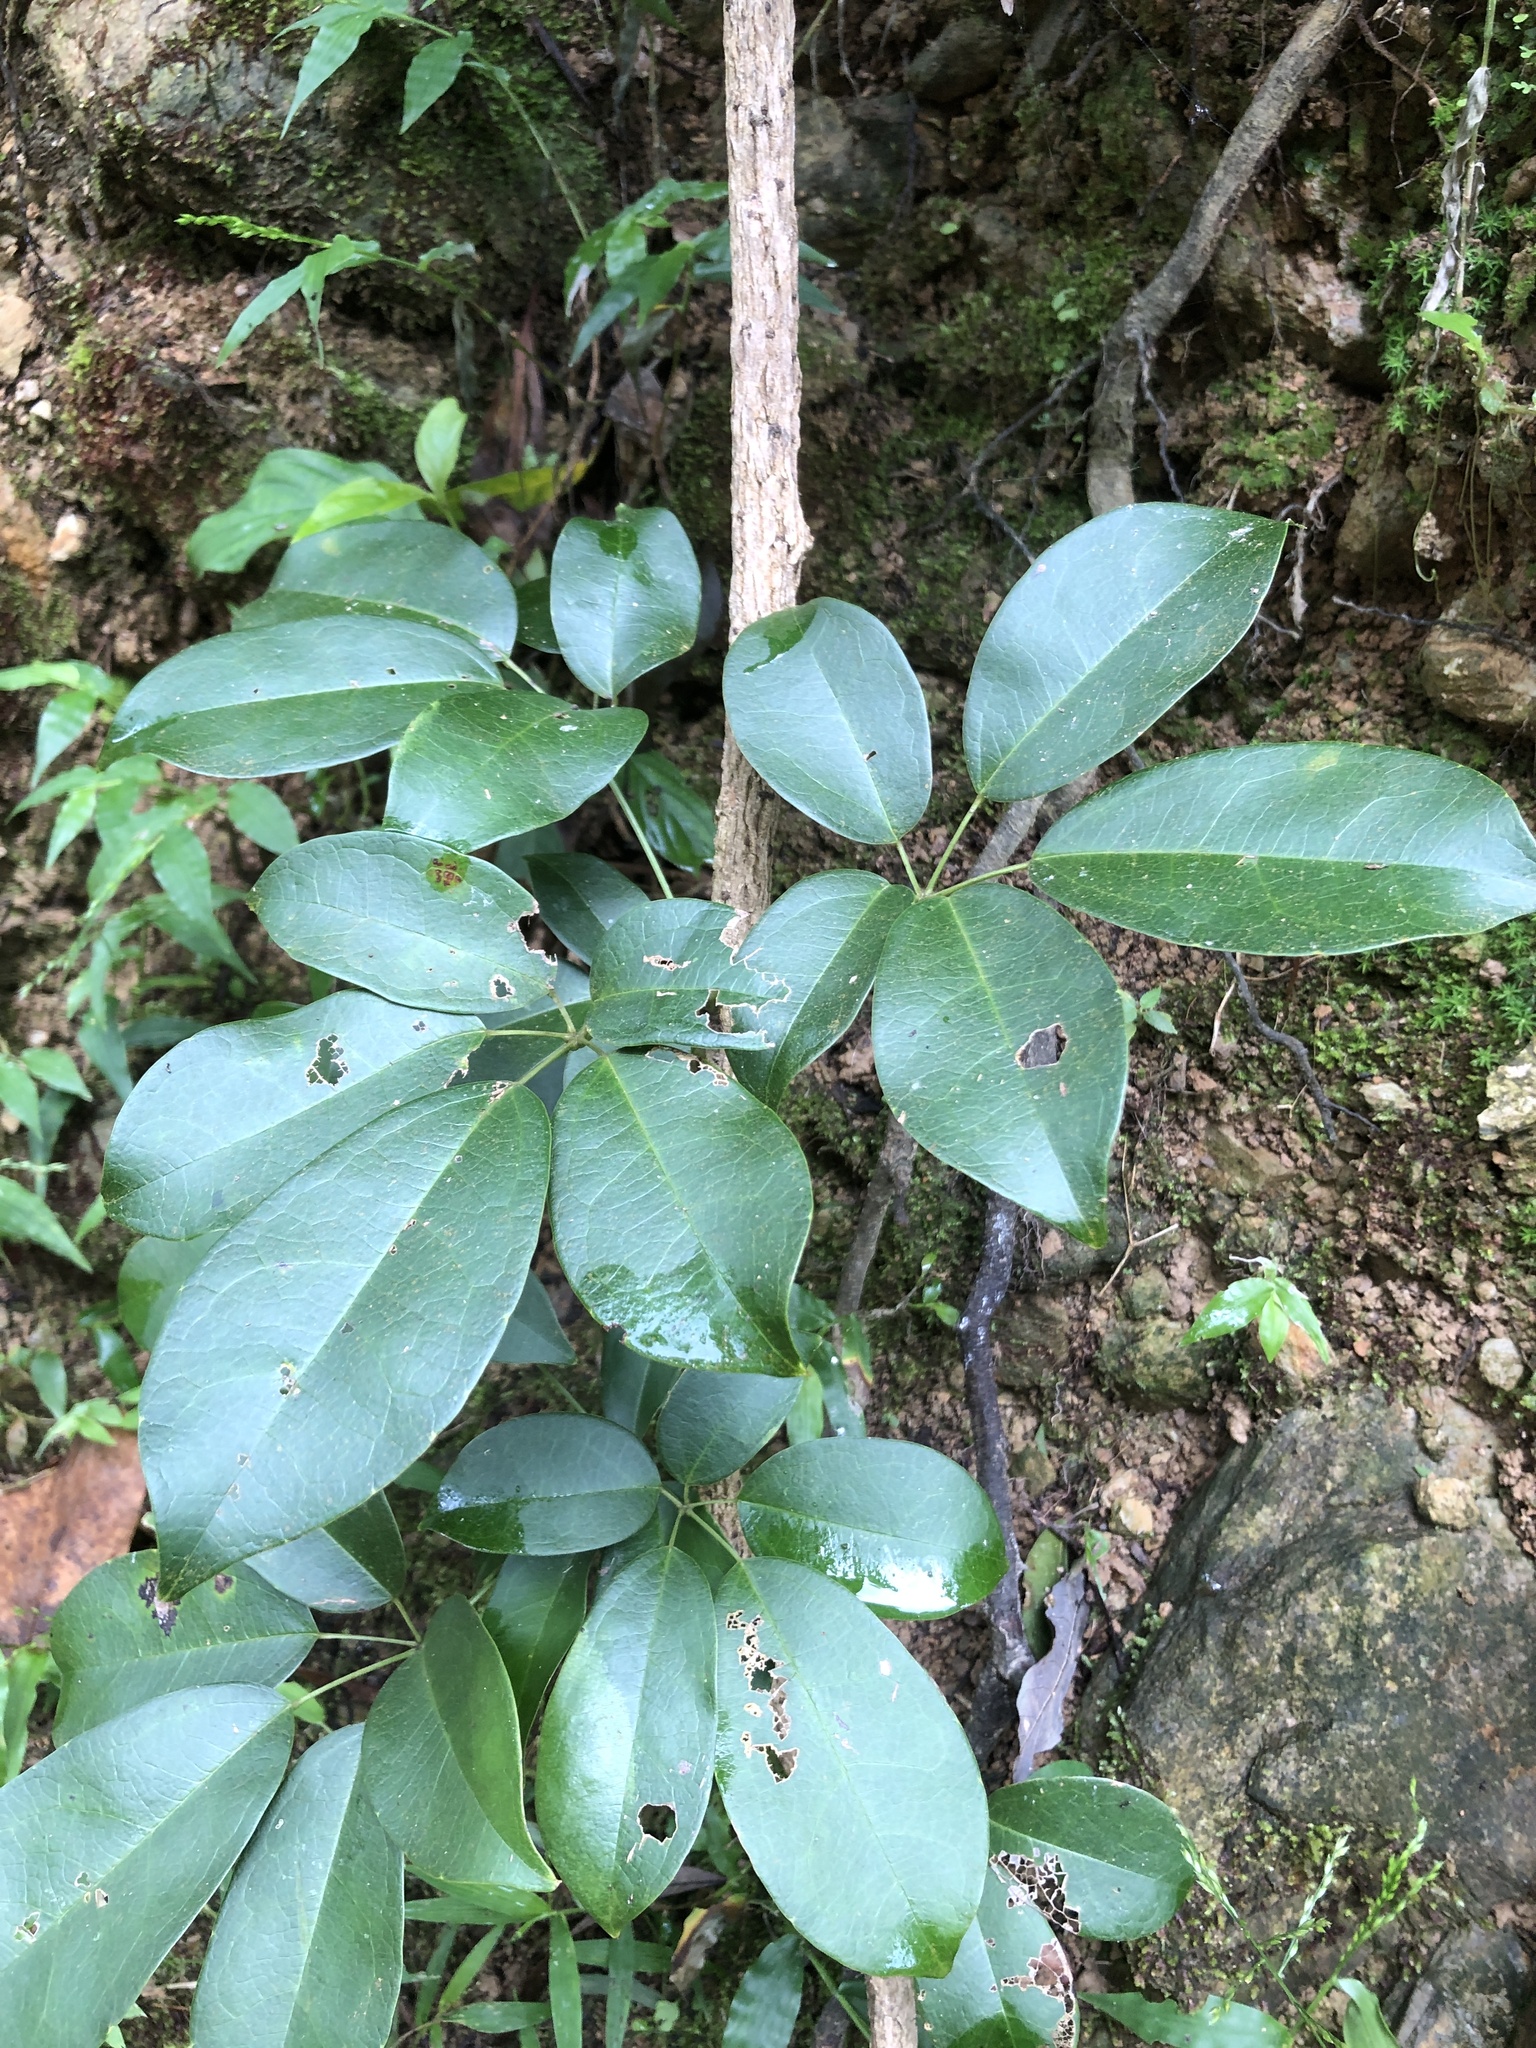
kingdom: Plantae
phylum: Tracheophyta
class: Magnoliopsida
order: Ranunculales
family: Lardizabalaceae
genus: Stauntonia
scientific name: Stauntonia obovatifoliola
